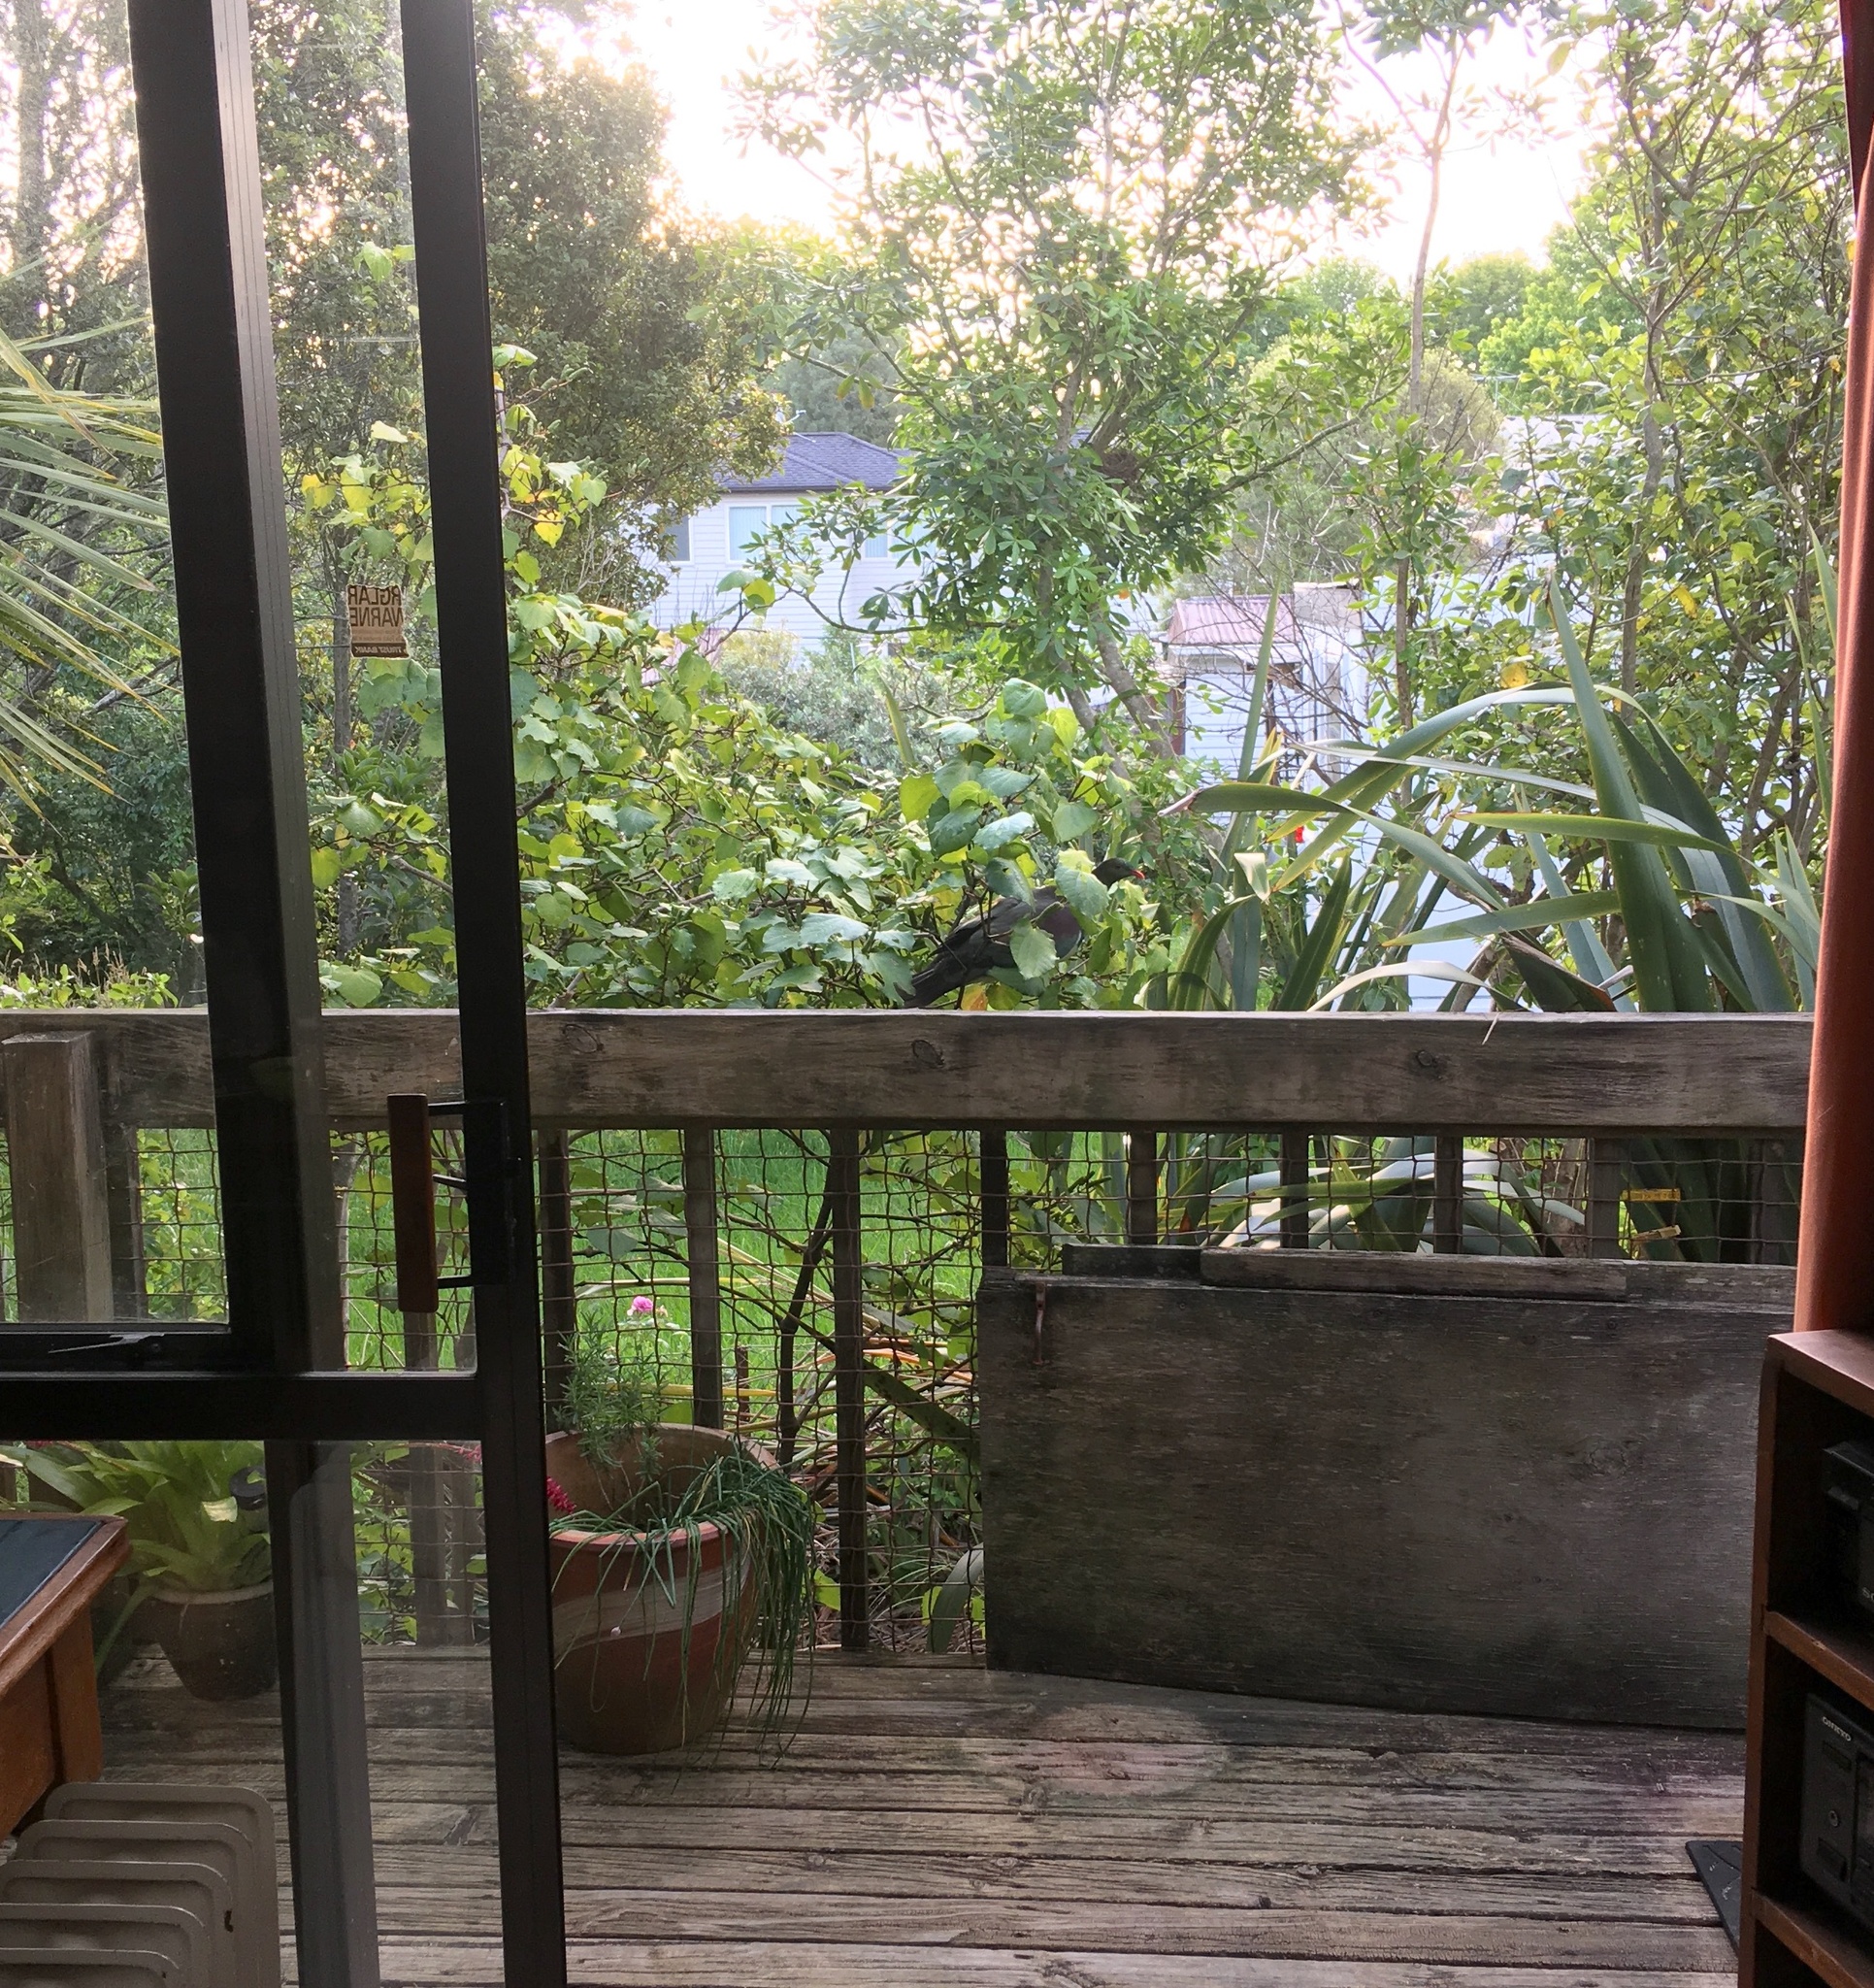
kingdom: Animalia
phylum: Chordata
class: Aves
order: Columbiformes
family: Columbidae
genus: Hemiphaga
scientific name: Hemiphaga novaeseelandiae
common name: New zealand pigeon
